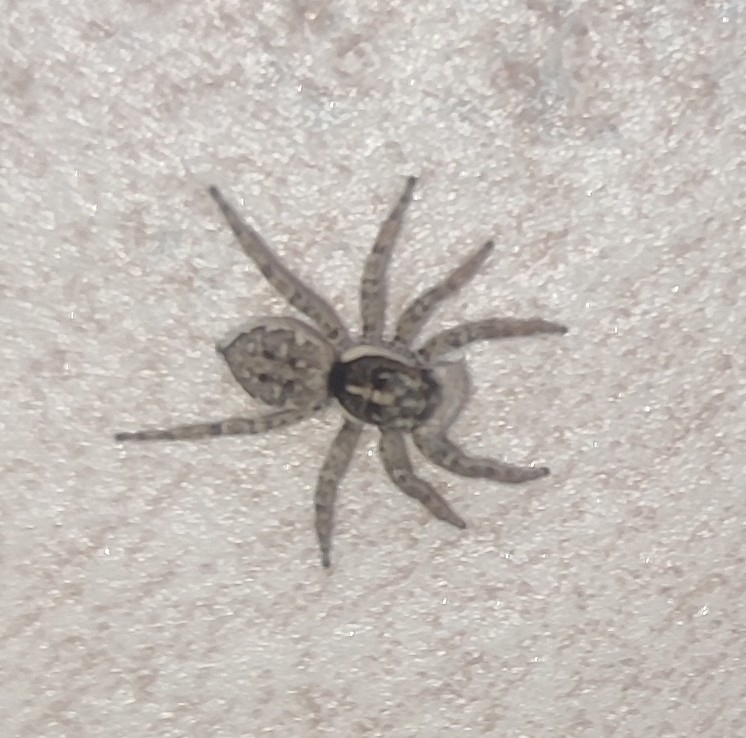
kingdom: Animalia
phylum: Arthropoda
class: Arachnida
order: Araneae
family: Salticidae
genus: Menemerus
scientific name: Menemerus semilimbatus
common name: Jumping spider
